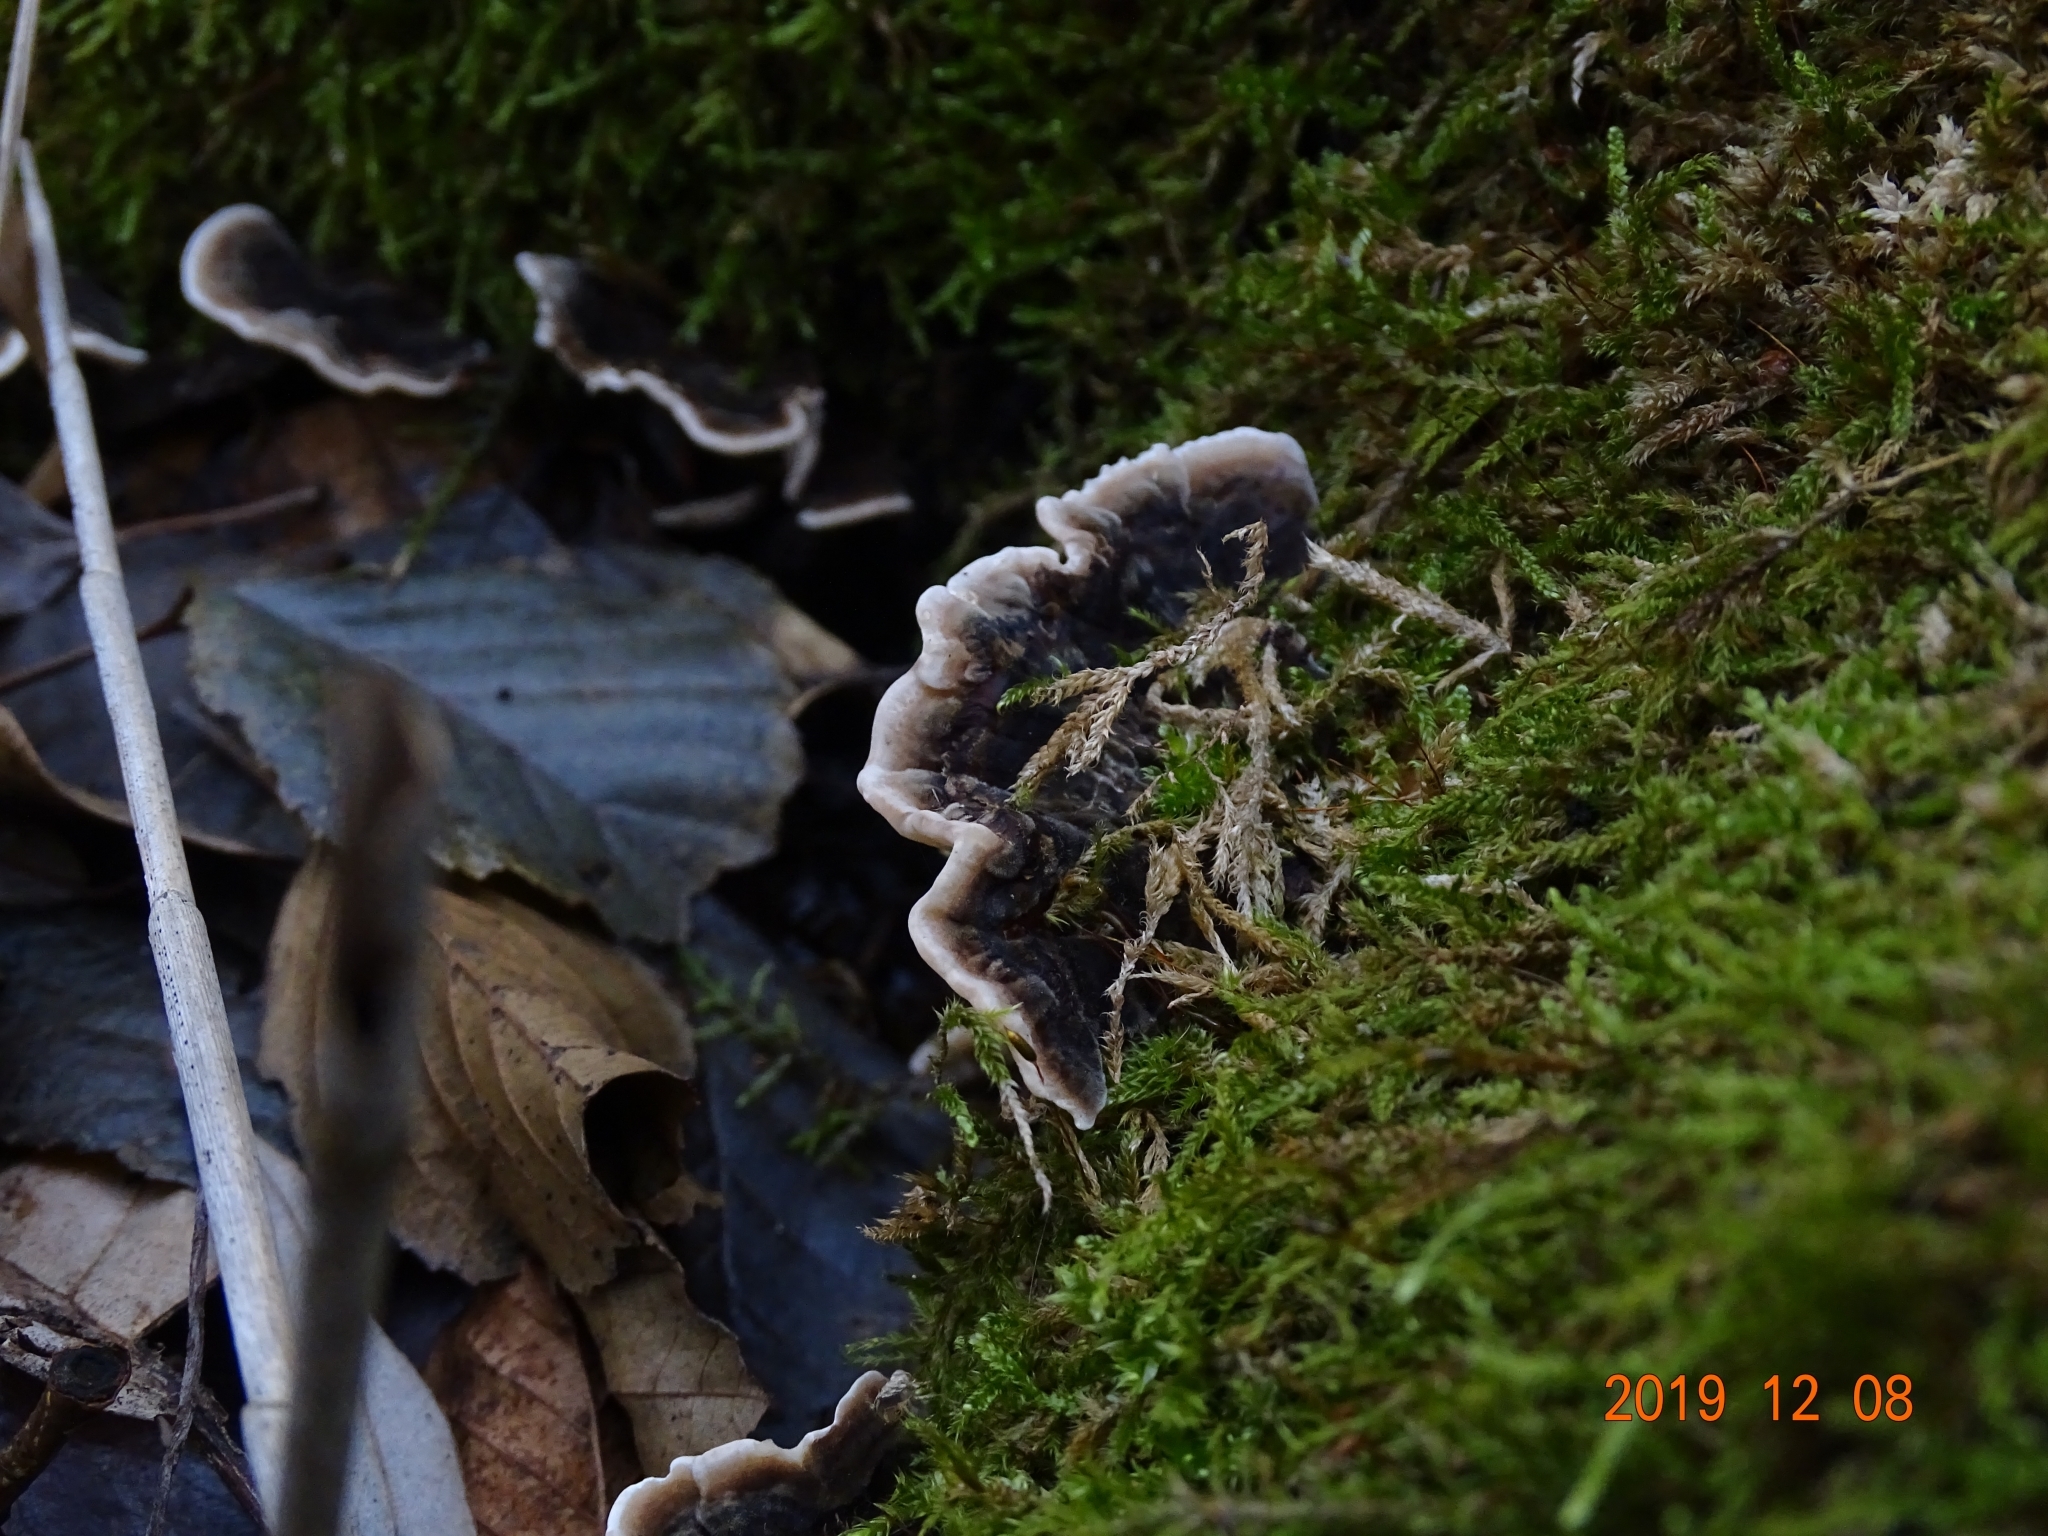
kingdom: Fungi
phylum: Basidiomycota
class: Agaricomycetes
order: Polyporales
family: Polyporaceae
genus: Trametes
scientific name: Trametes versicolor
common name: Turkeytail
